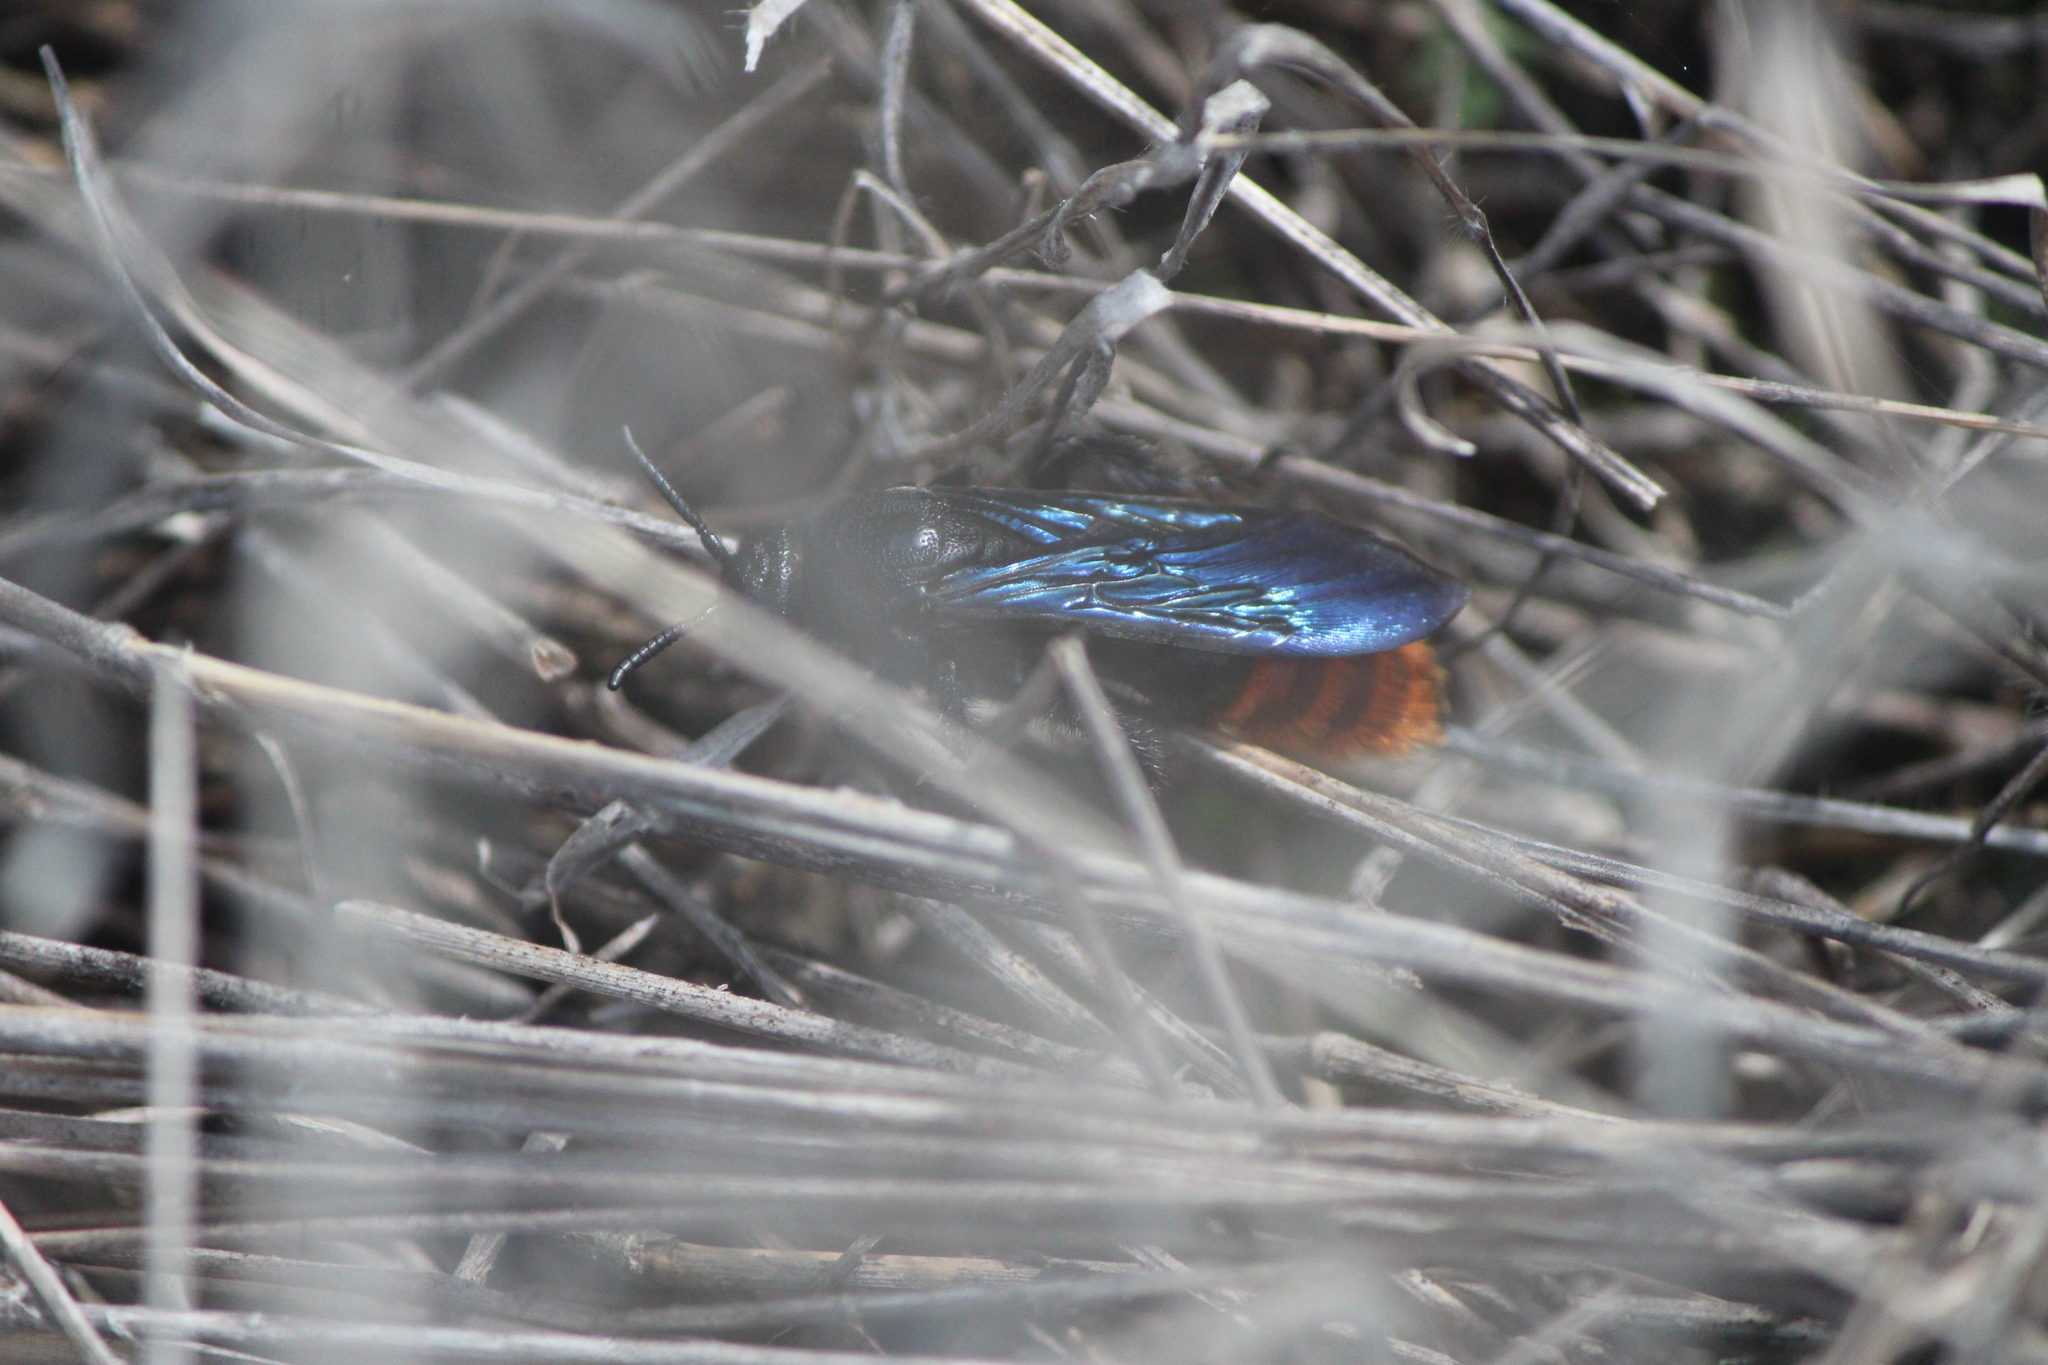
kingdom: Animalia
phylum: Arthropoda
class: Insecta
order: Hymenoptera
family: Scoliidae
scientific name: Scoliidae
